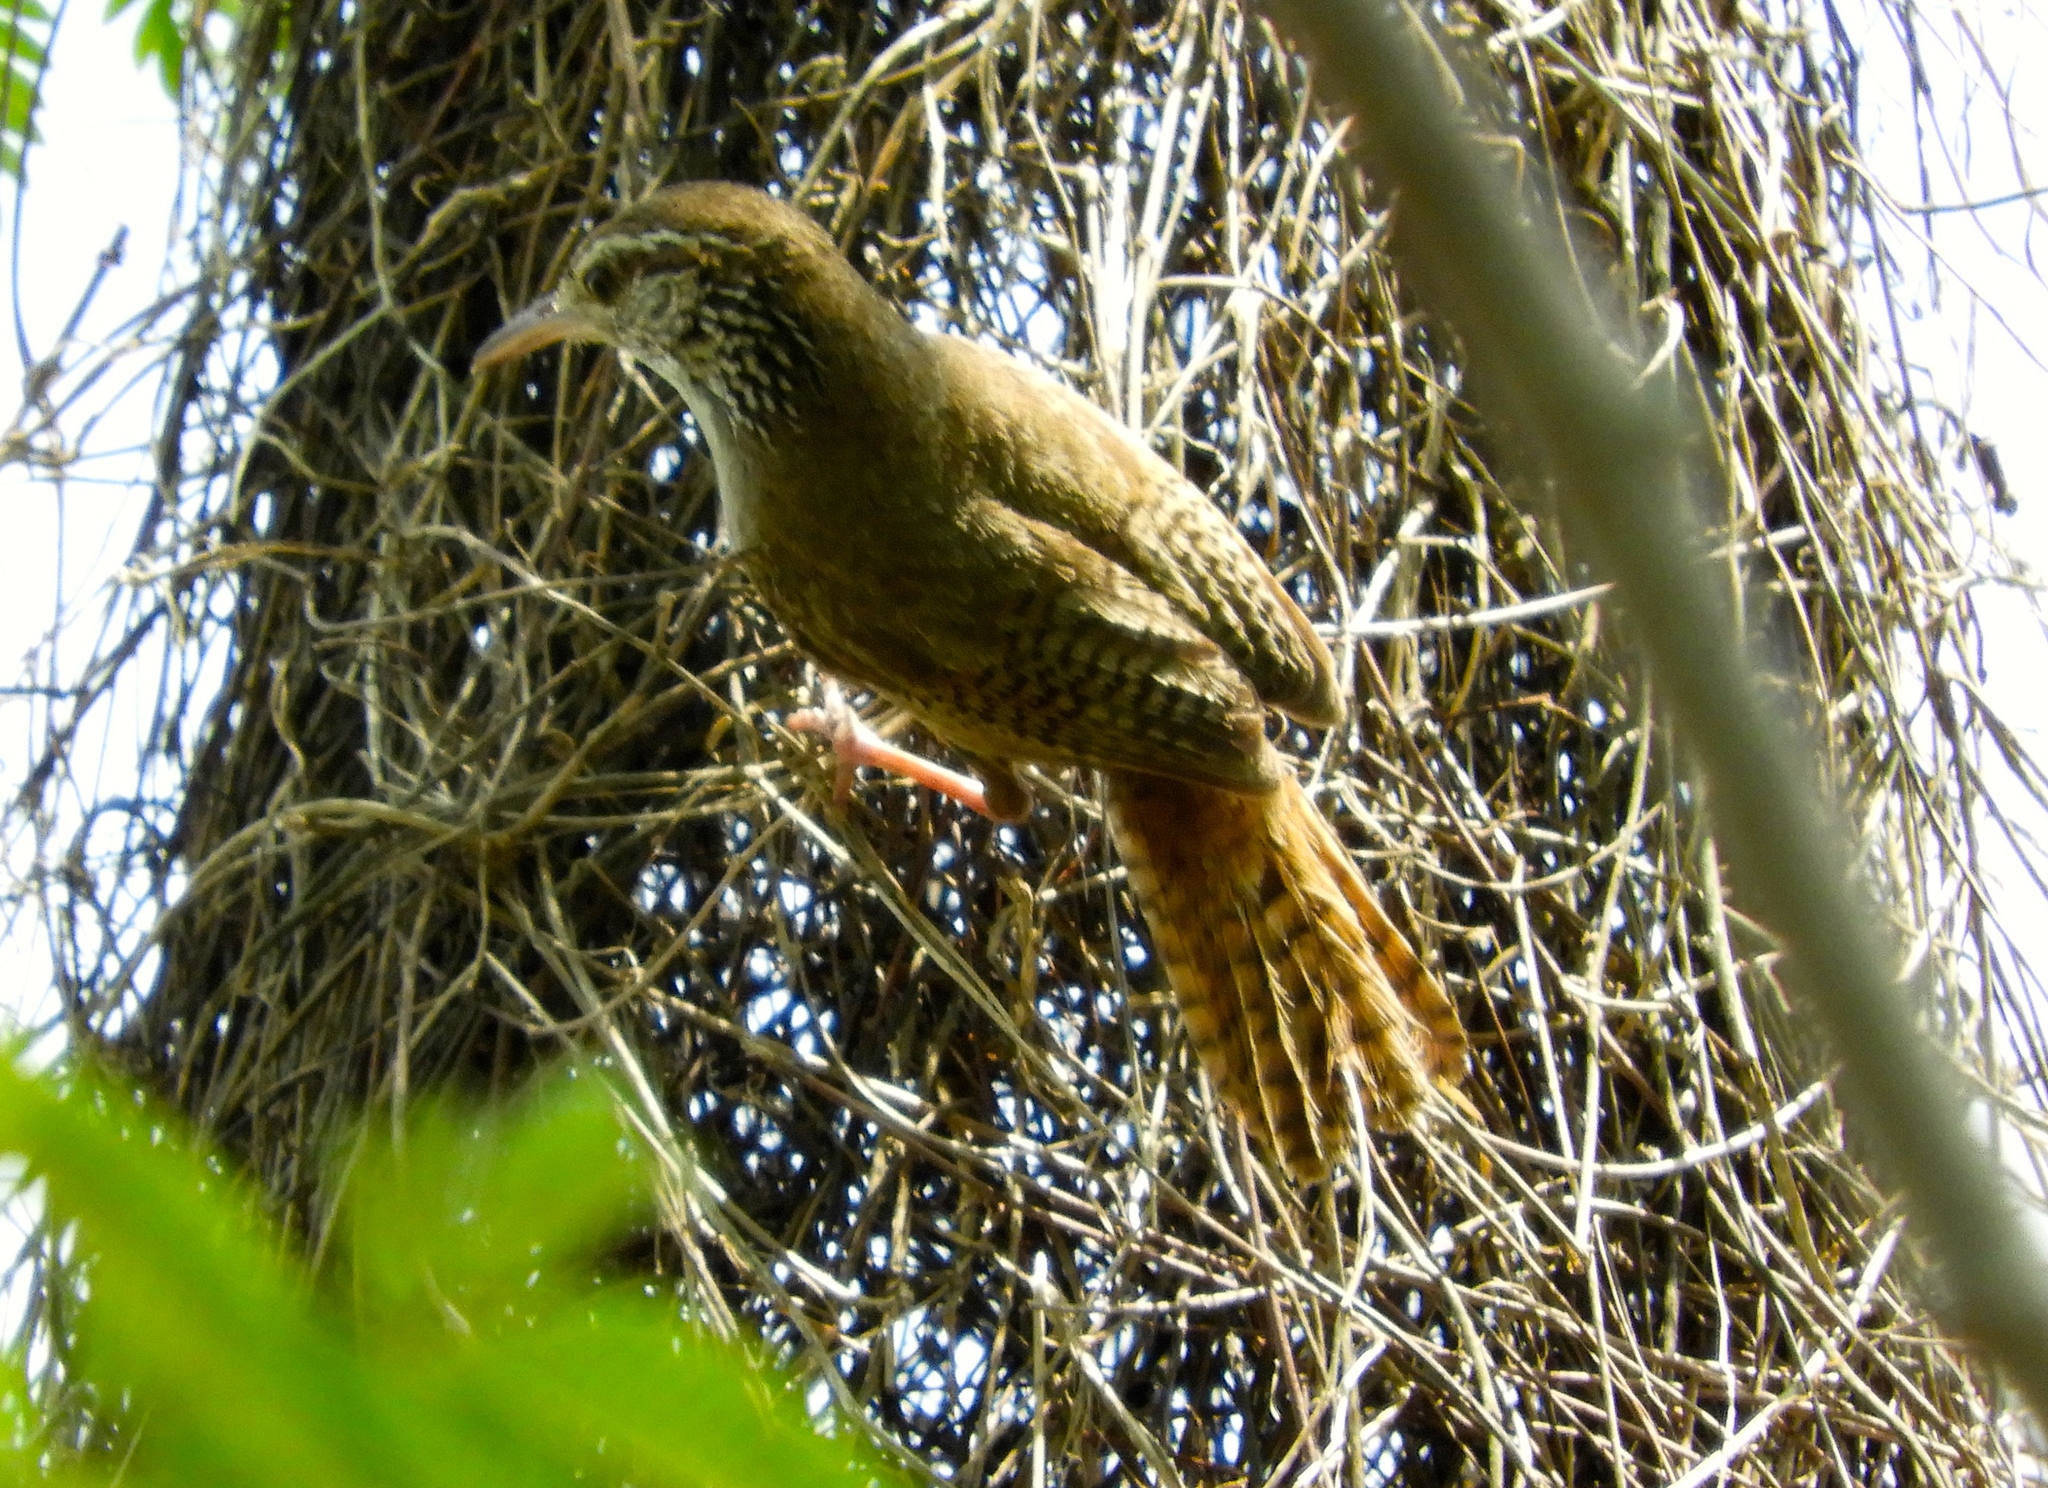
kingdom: Animalia
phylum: Chordata
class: Aves
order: Passeriformes
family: Troglodytidae
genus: Thryophilus
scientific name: Thryophilus sinaloa
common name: Sinaloa wren
